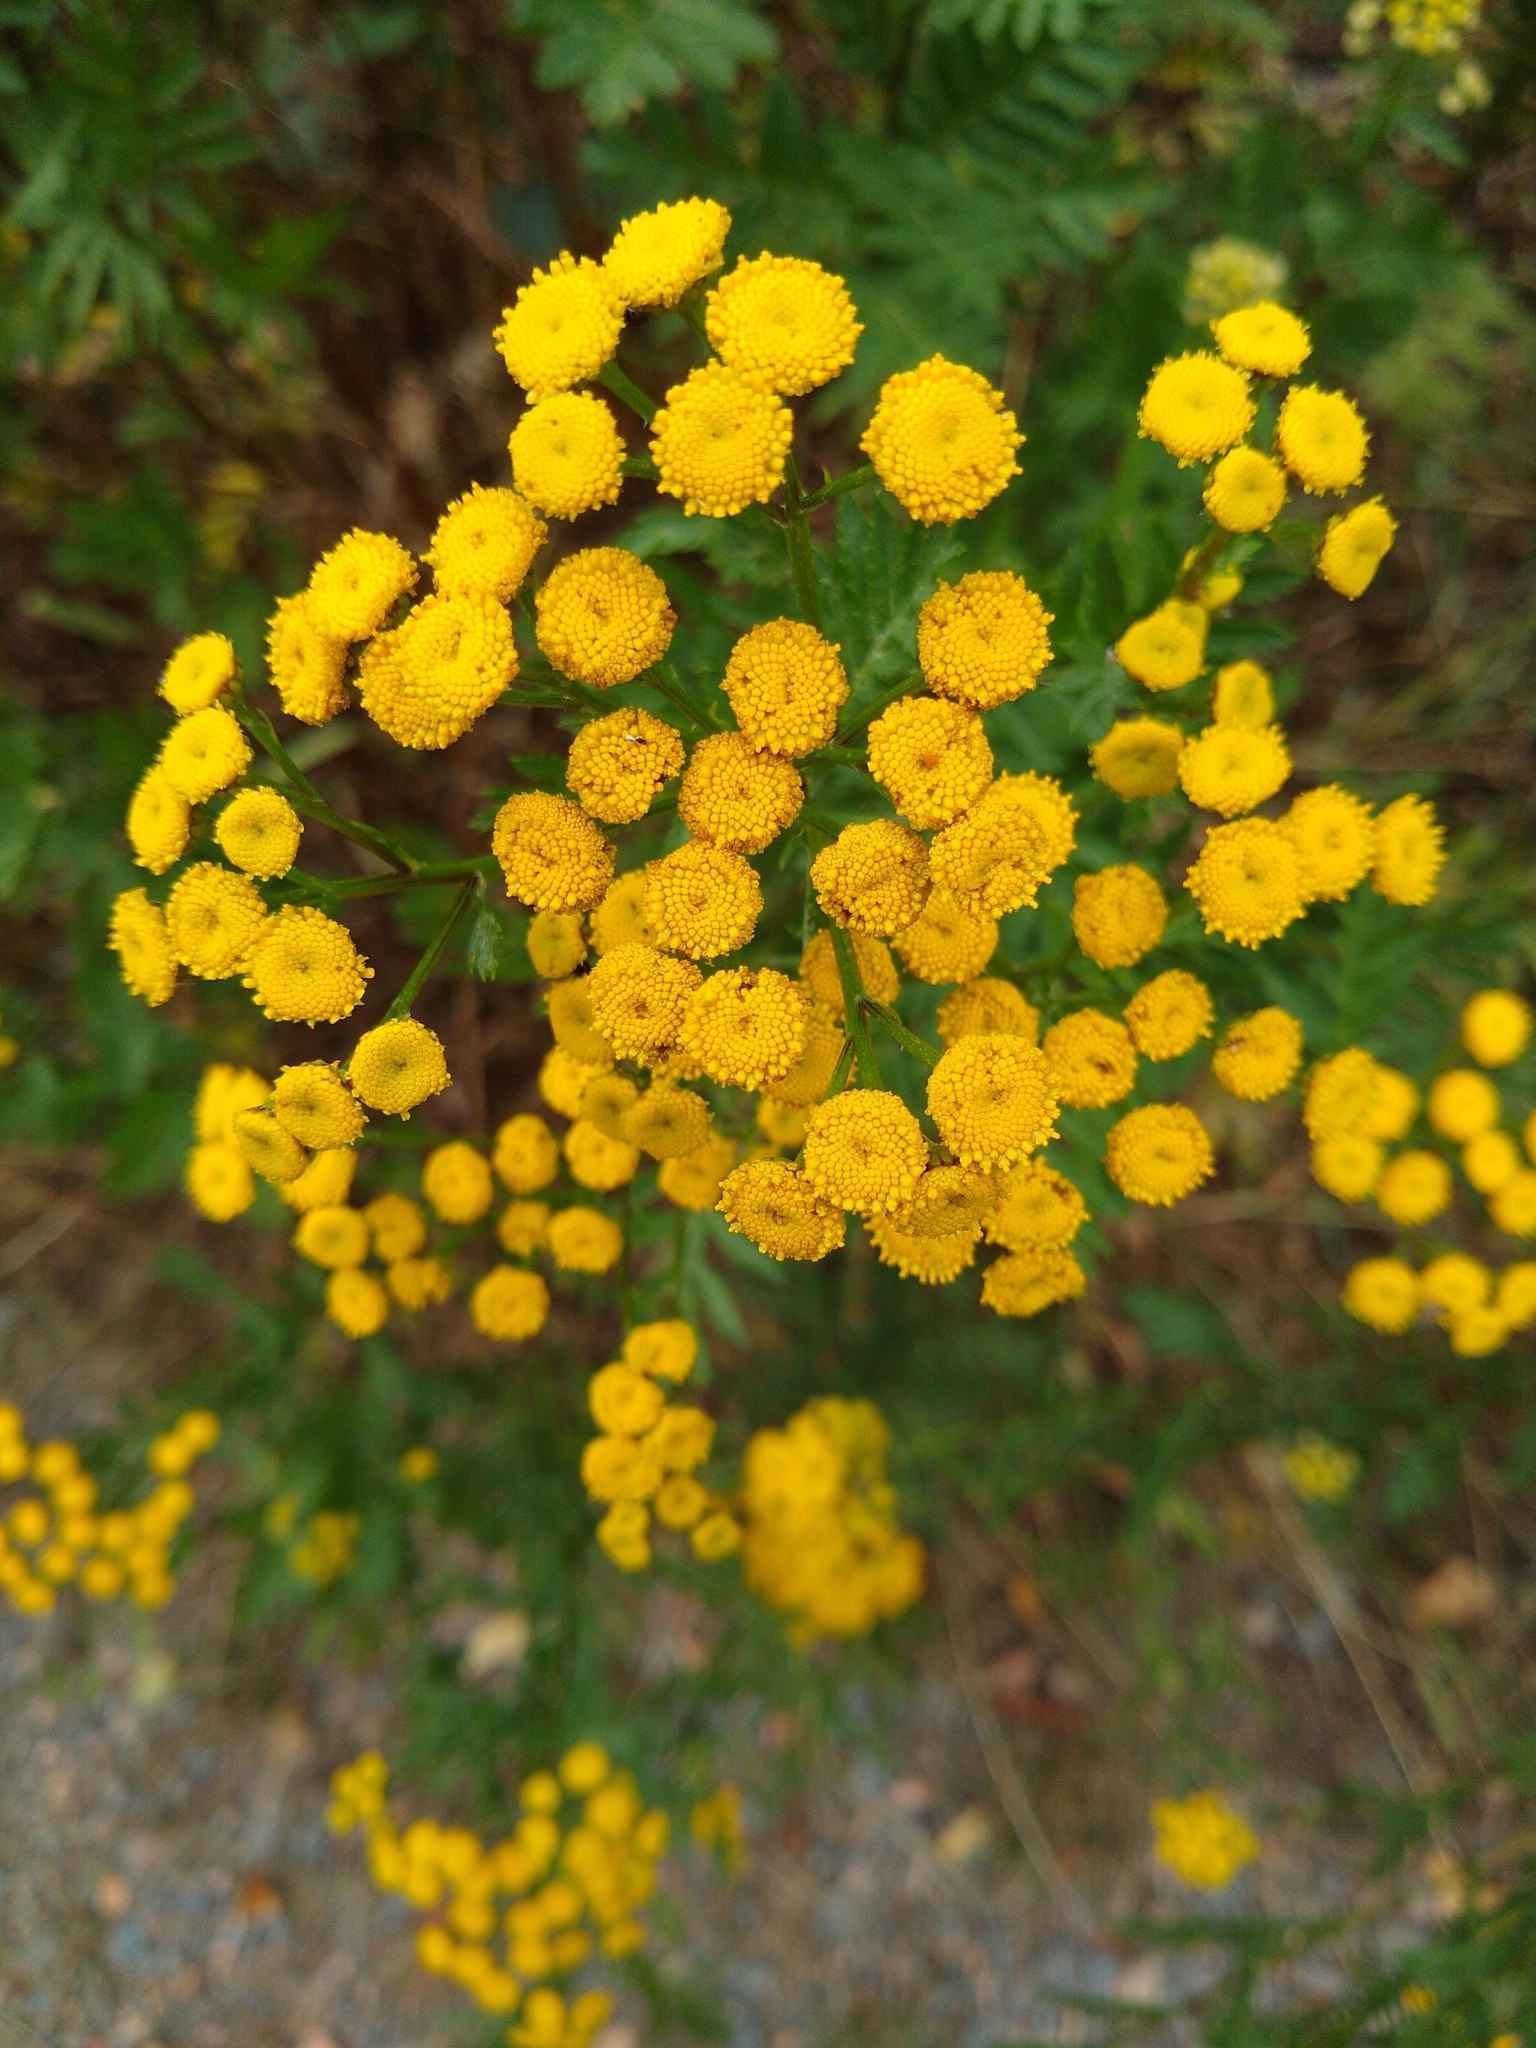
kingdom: Plantae
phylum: Tracheophyta
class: Magnoliopsida
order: Asterales
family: Asteraceae
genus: Tanacetum
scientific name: Tanacetum vulgare
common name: Common tansy
